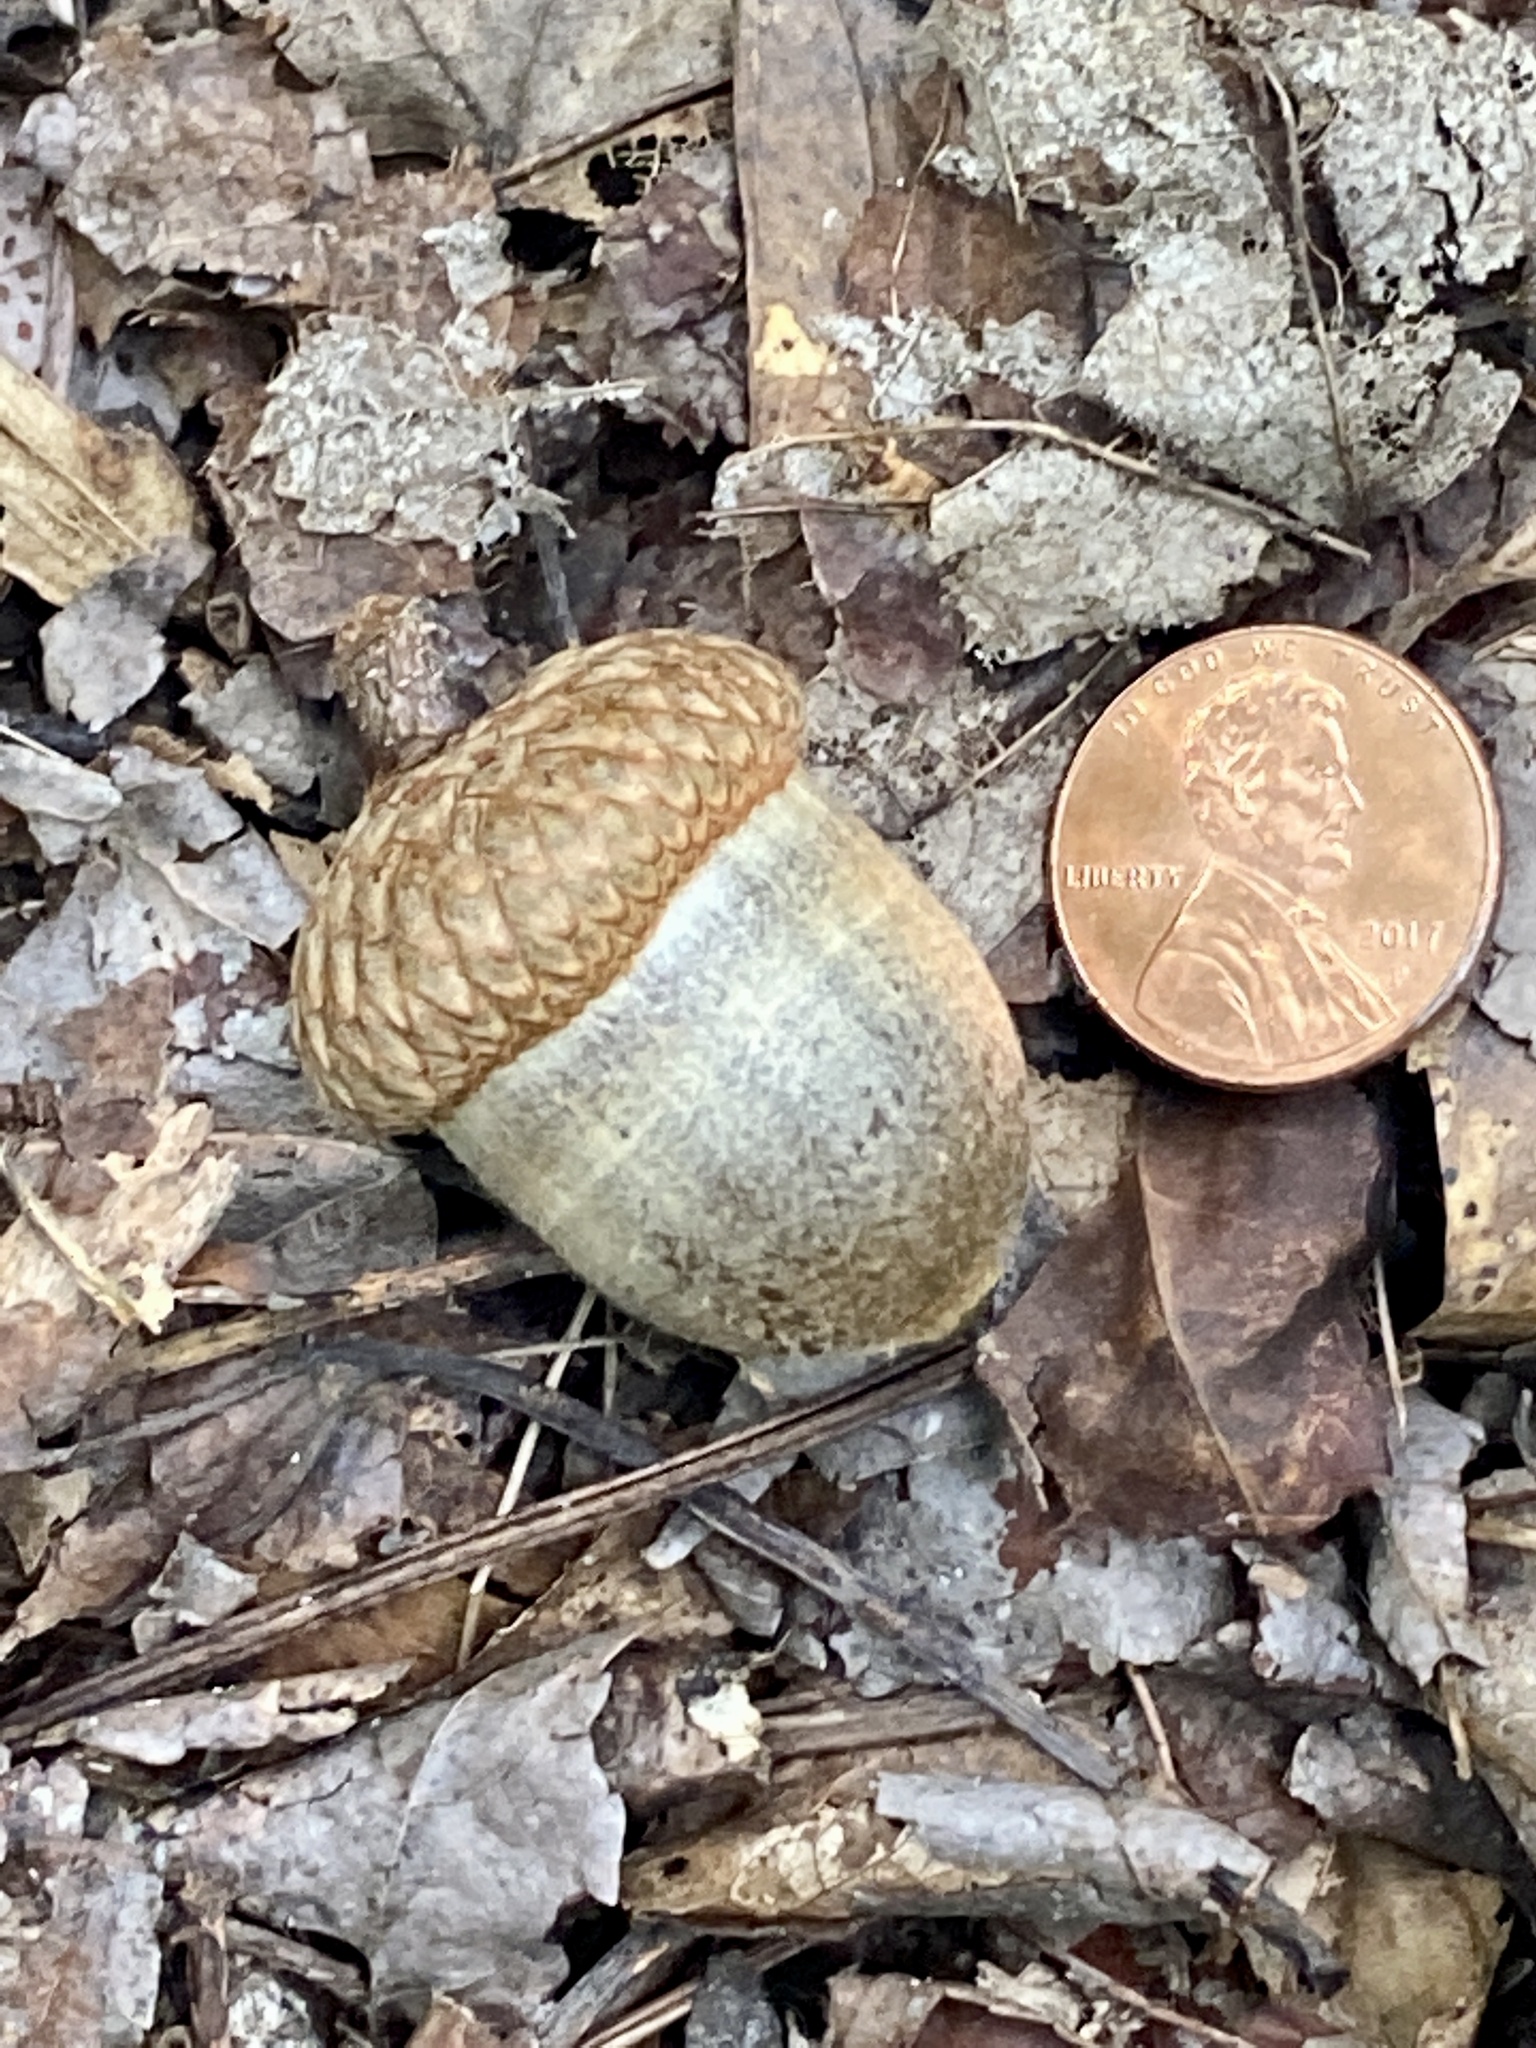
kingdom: Plantae
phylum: Tracheophyta
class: Magnoliopsida
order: Fagales
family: Fagaceae
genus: Quercus
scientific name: Quercus rubra
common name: Red oak
